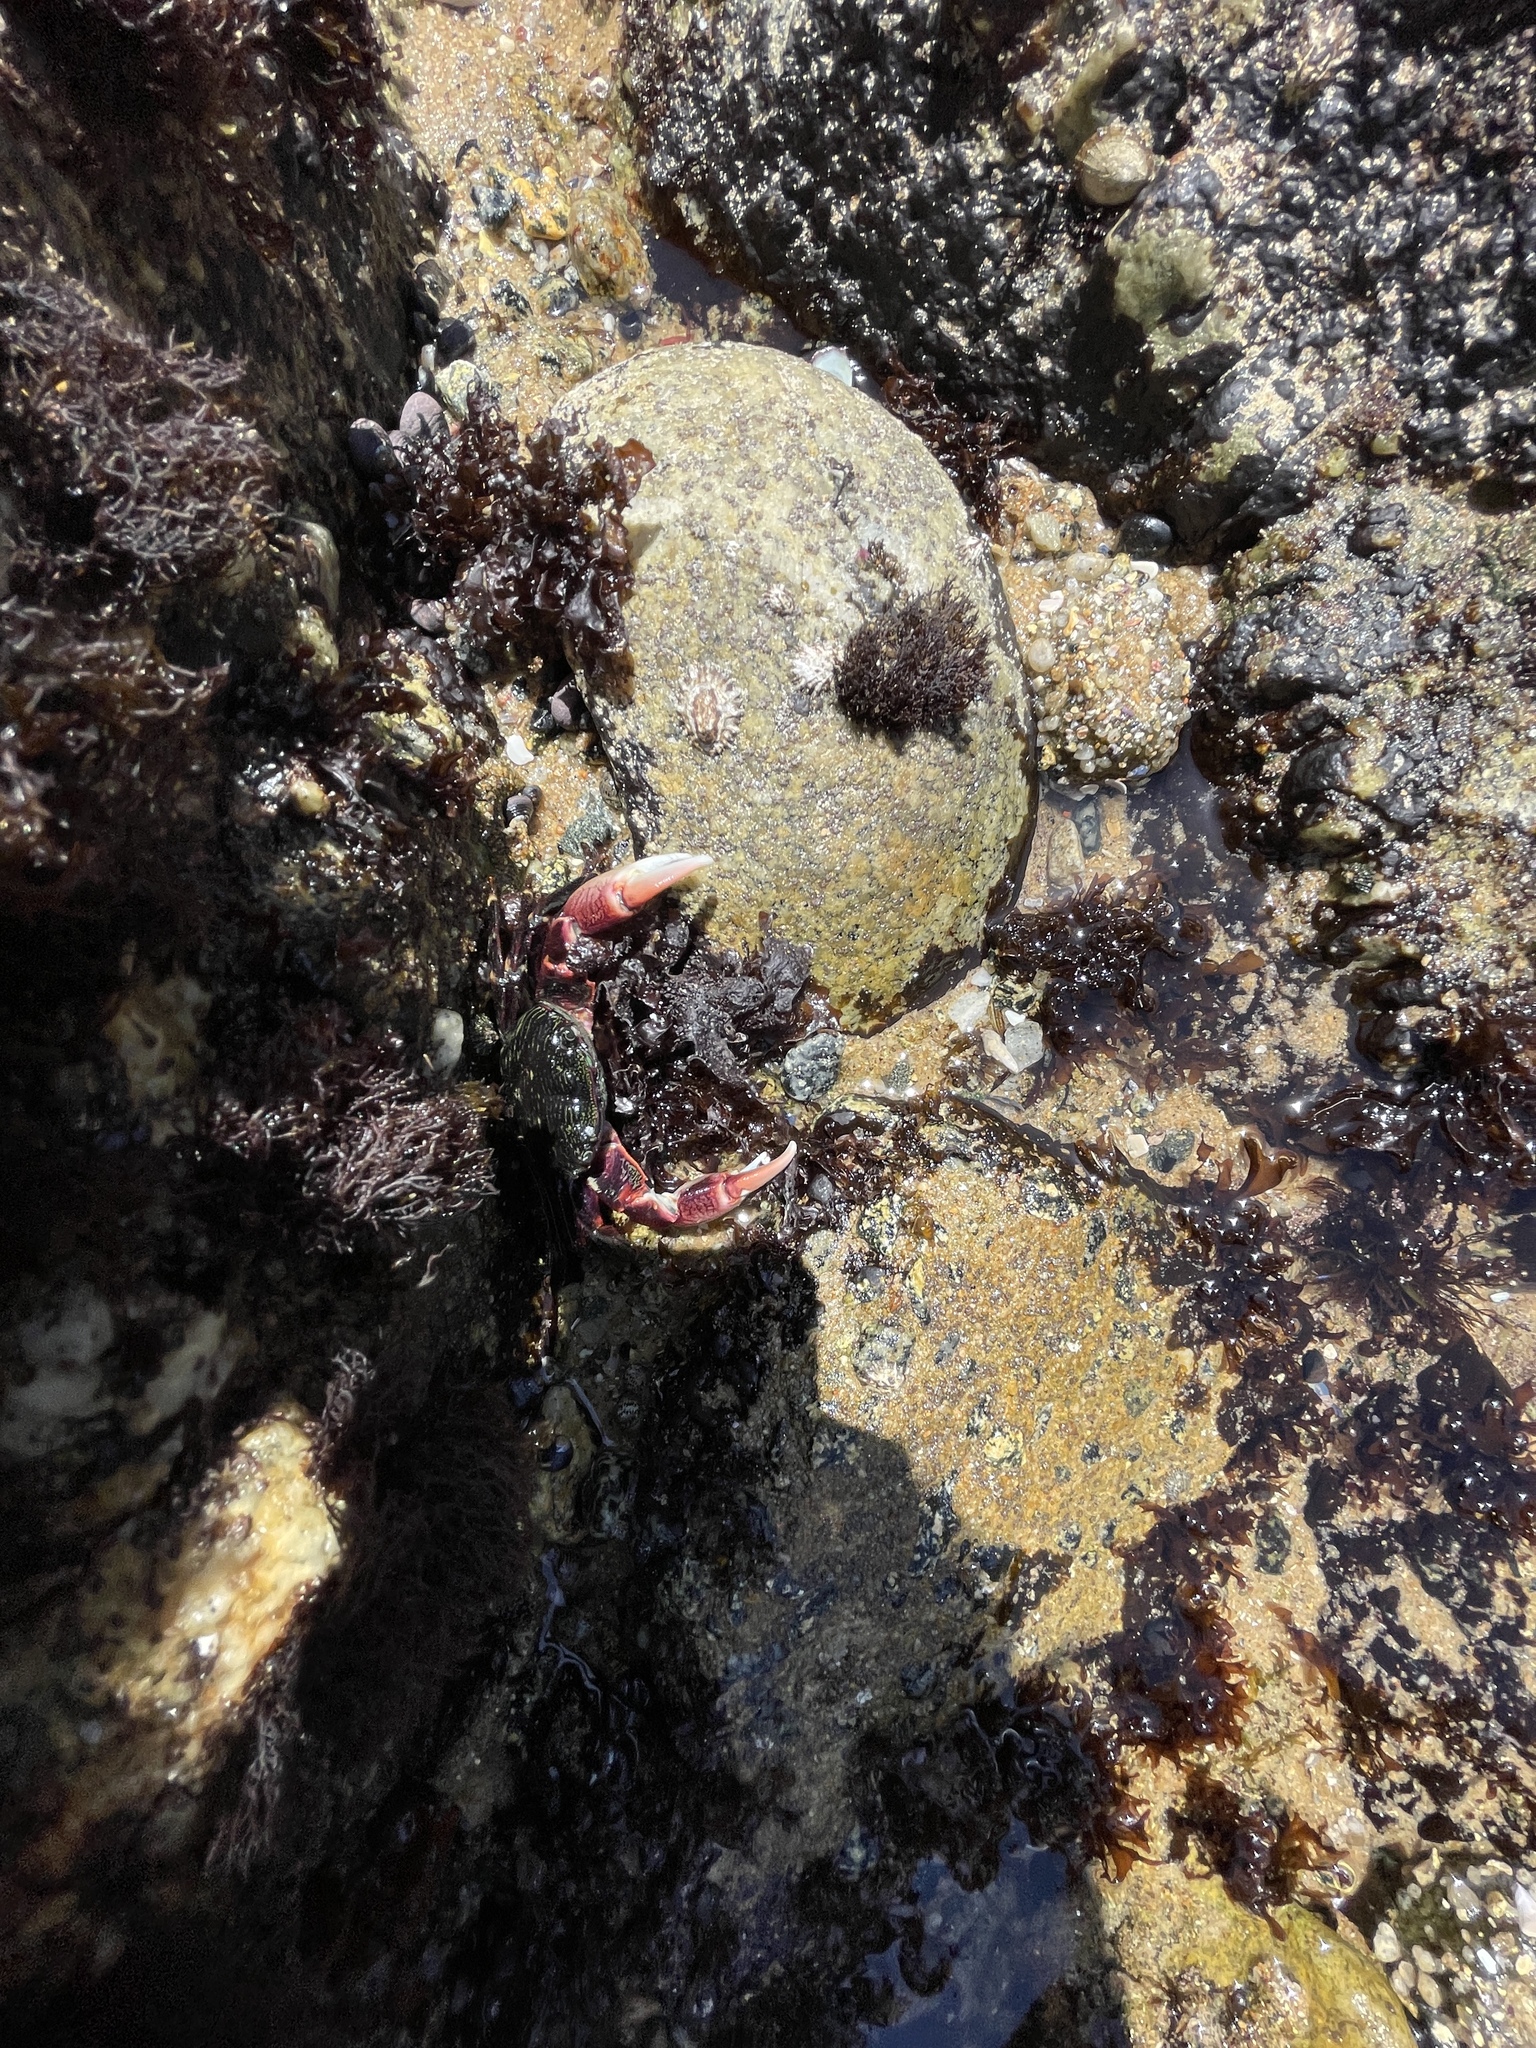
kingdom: Animalia
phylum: Arthropoda
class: Malacostraca
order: Decapoda
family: Grapsidae
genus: Pachygrapsus
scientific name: Pachygrapsus crassipes
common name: Striped shore crab
